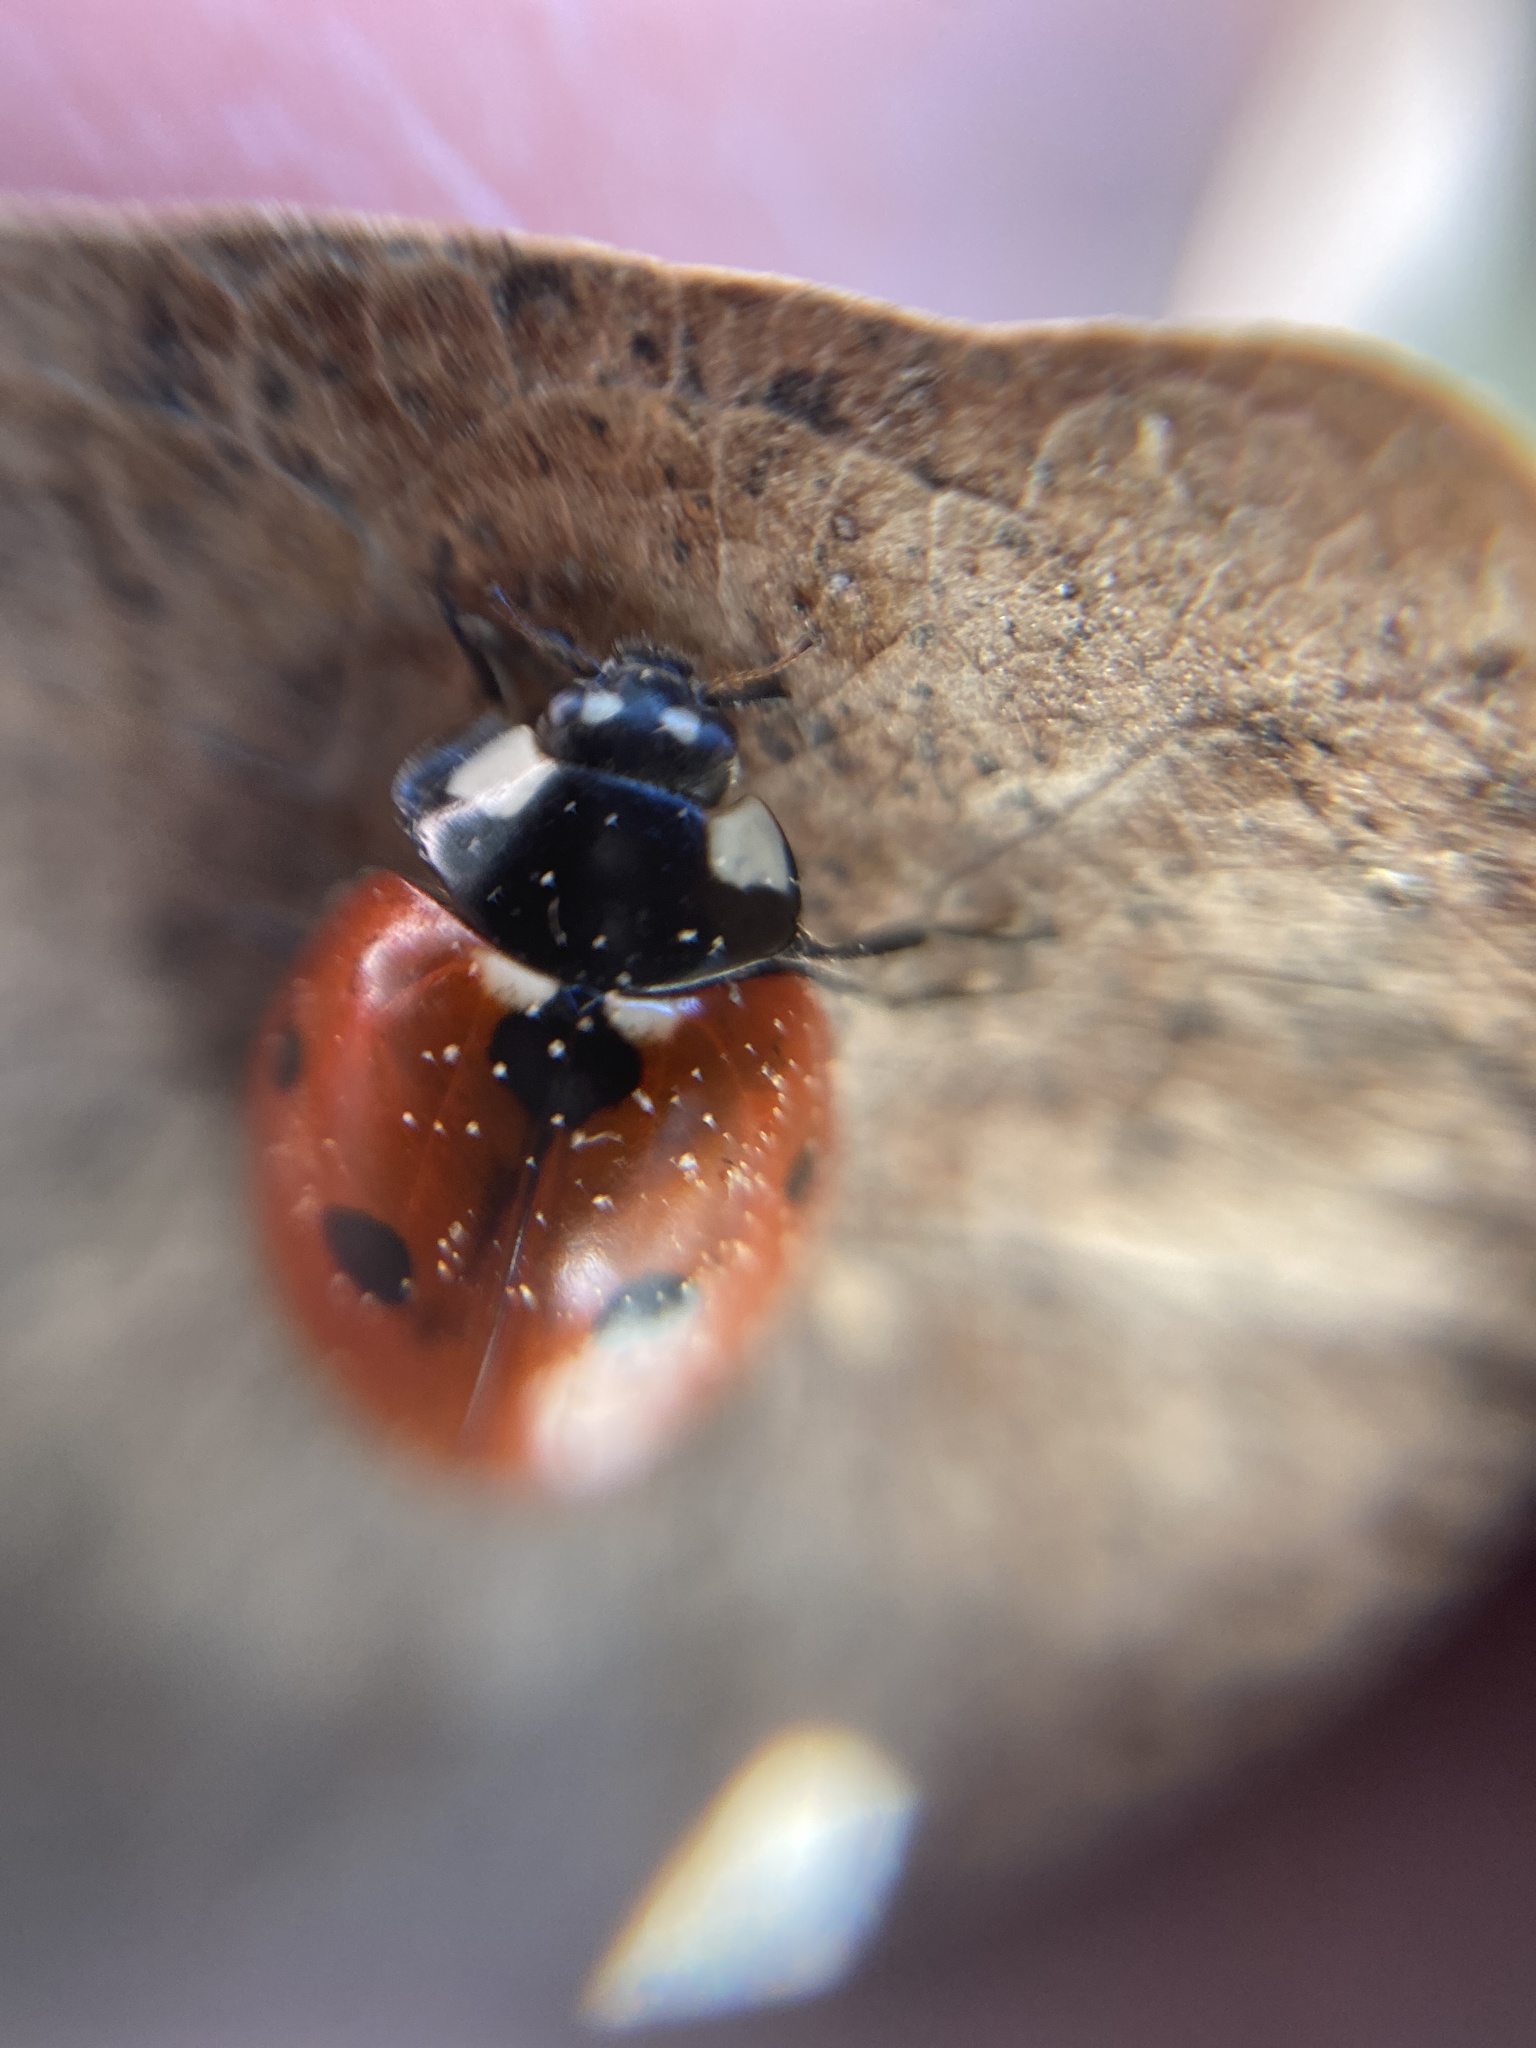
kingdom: Animalia
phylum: Arthropoda
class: Insecta
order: Coleoptera
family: Coccinellidae
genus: Coccinella
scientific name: Coccinella septempunctata
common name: Sevenspotted lady beetle
